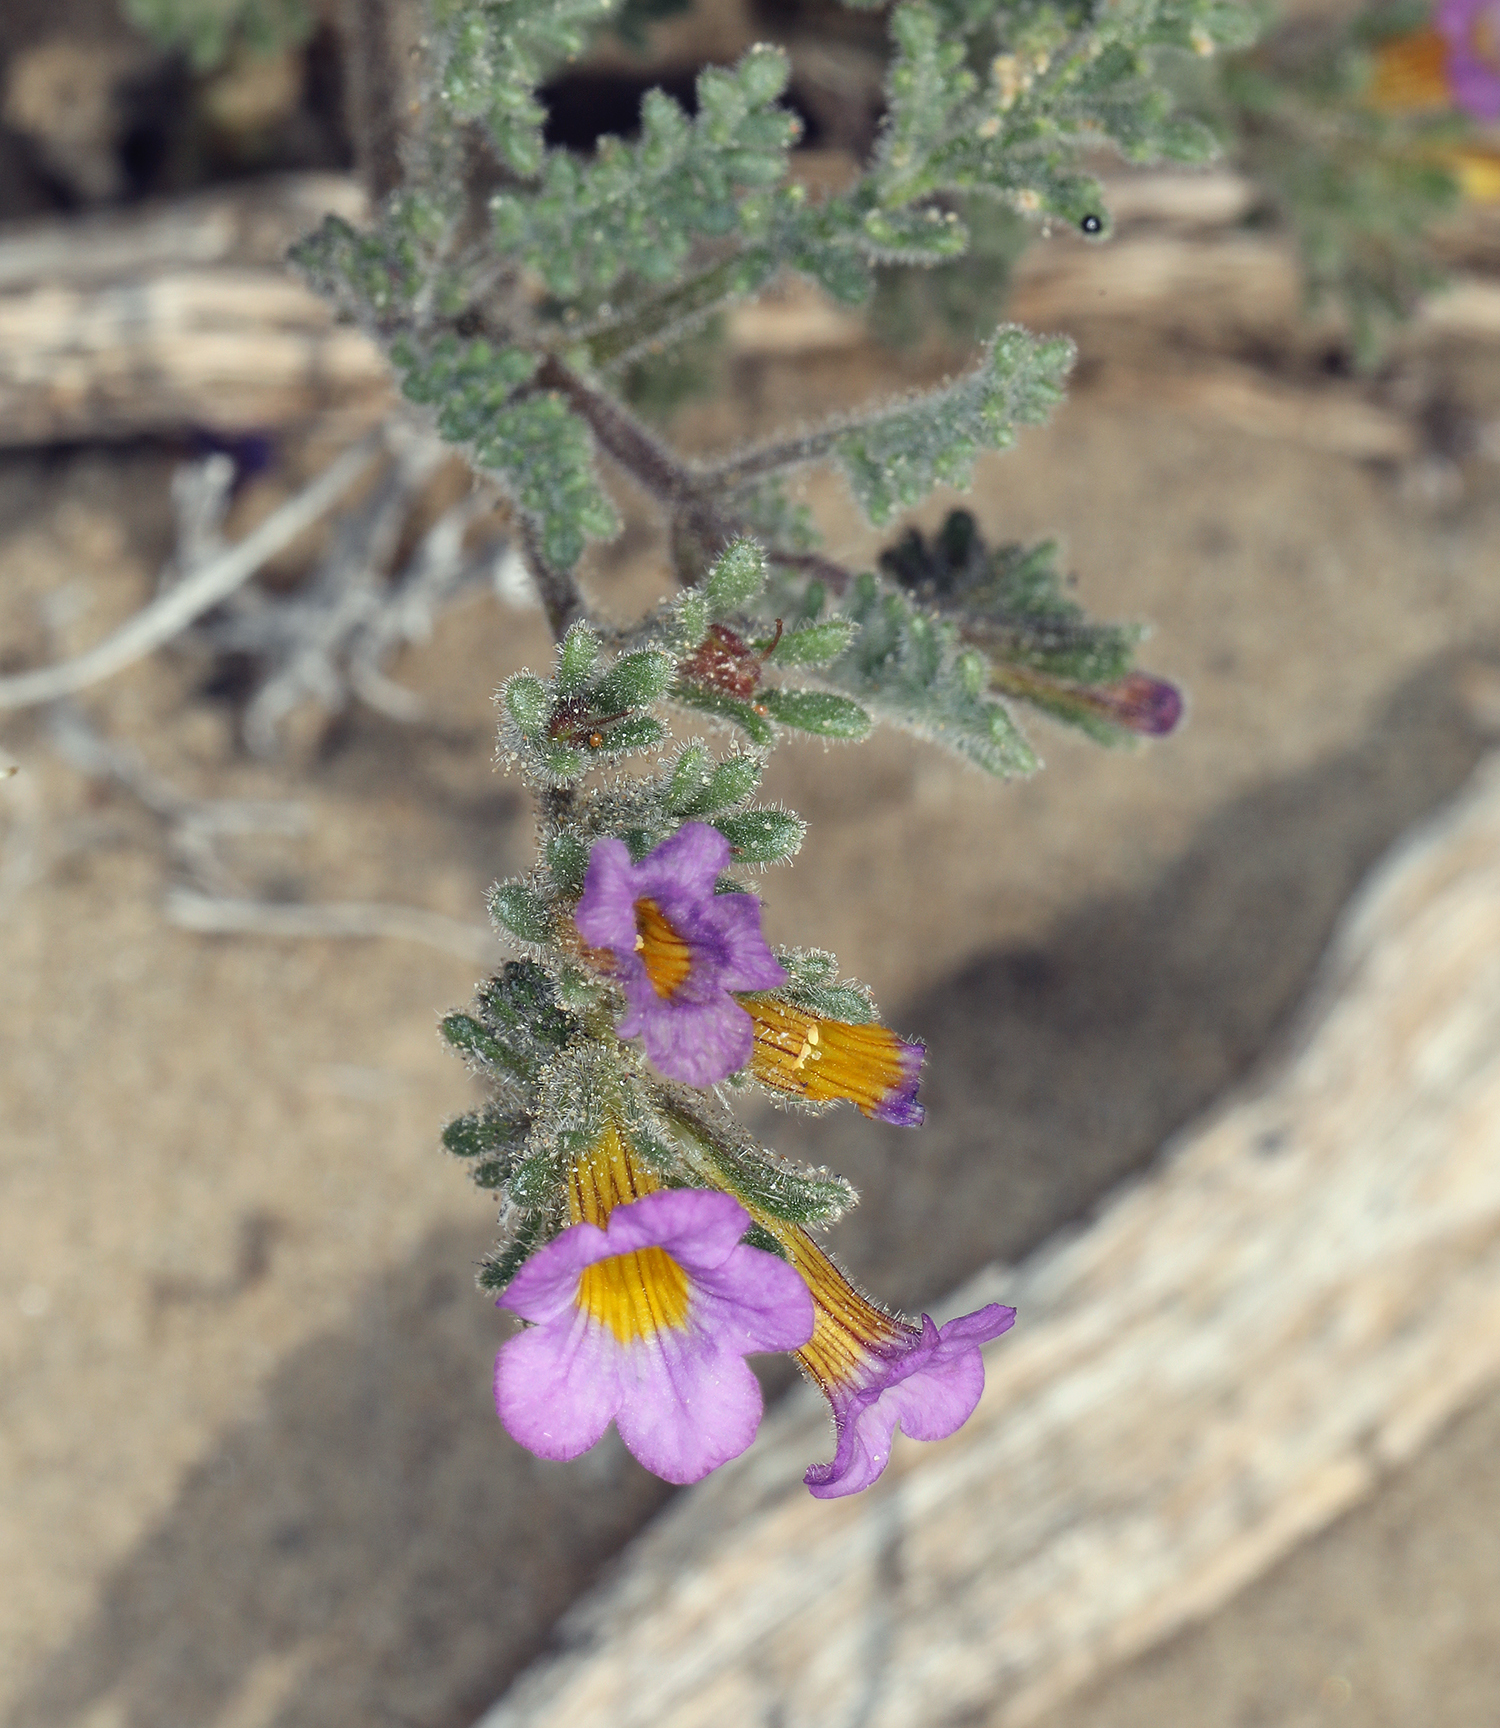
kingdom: Plantae
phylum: Tracheophyta
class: Magnoliopsida
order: Boraginales
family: Hydrophyllaceae
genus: Phacelia
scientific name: Phacelia bicolor
